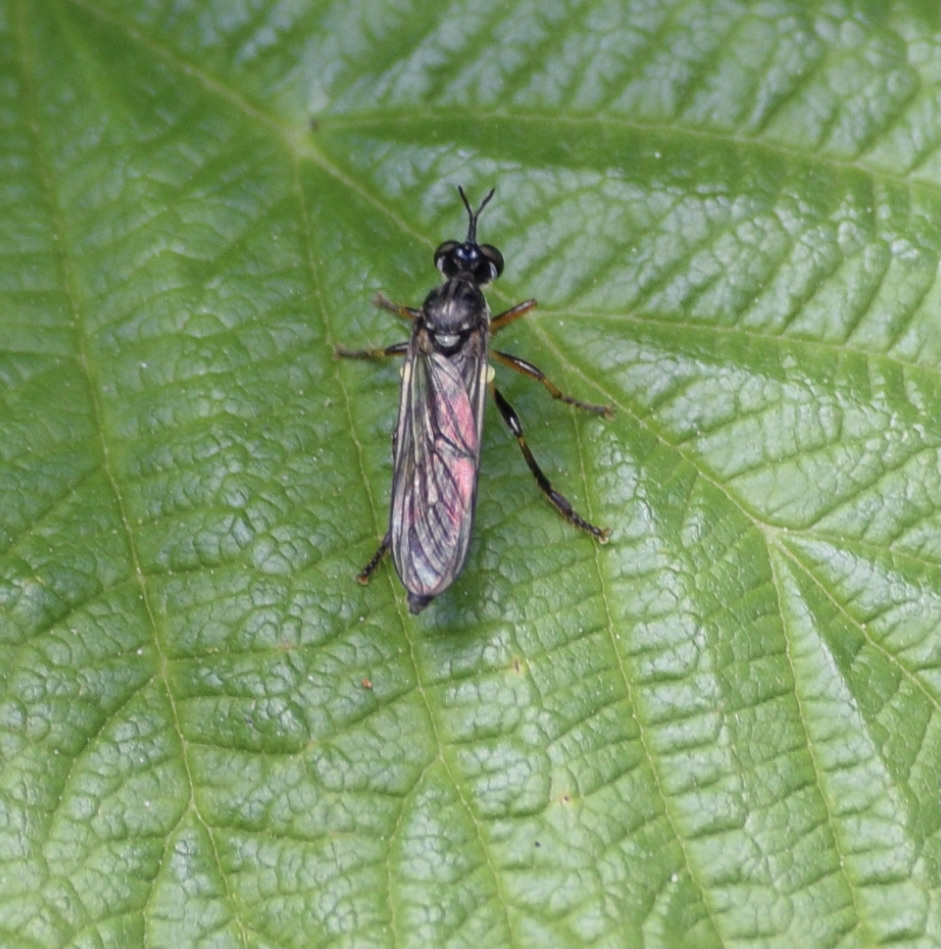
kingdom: Animalia
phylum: Arthropoda
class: Insecta
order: Diptera
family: Asilidae
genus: Dioctria
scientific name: Dioctria hyalipennis
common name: Stripe-legged robberfly
